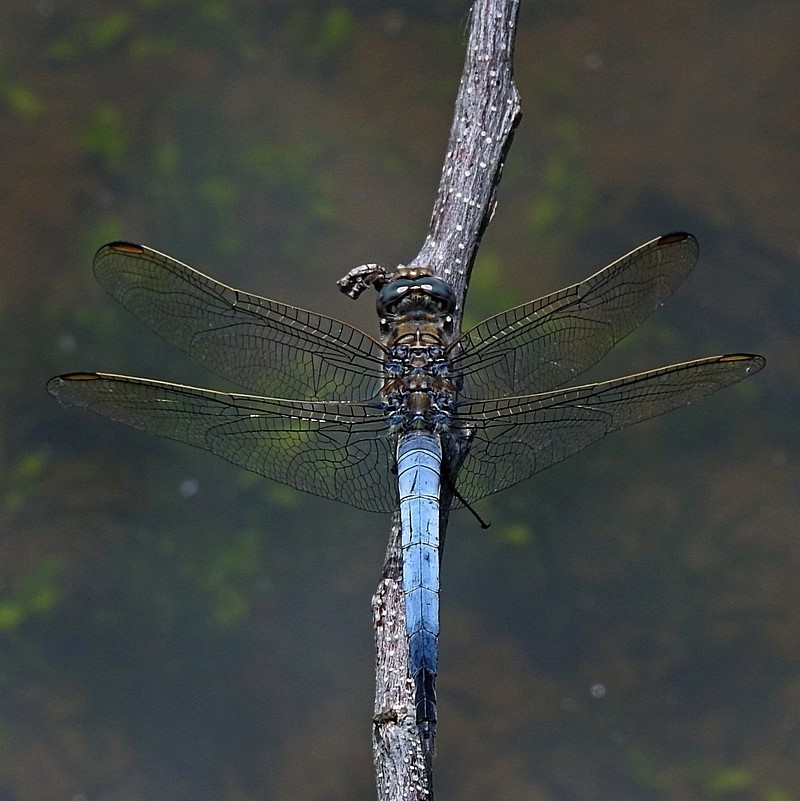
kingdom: Animalia
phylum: Arthropoda
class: Insecta
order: Odonata
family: Libellulidae
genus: Orthetrum
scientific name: Orthetrum caledonicum
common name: Blue skimmer
